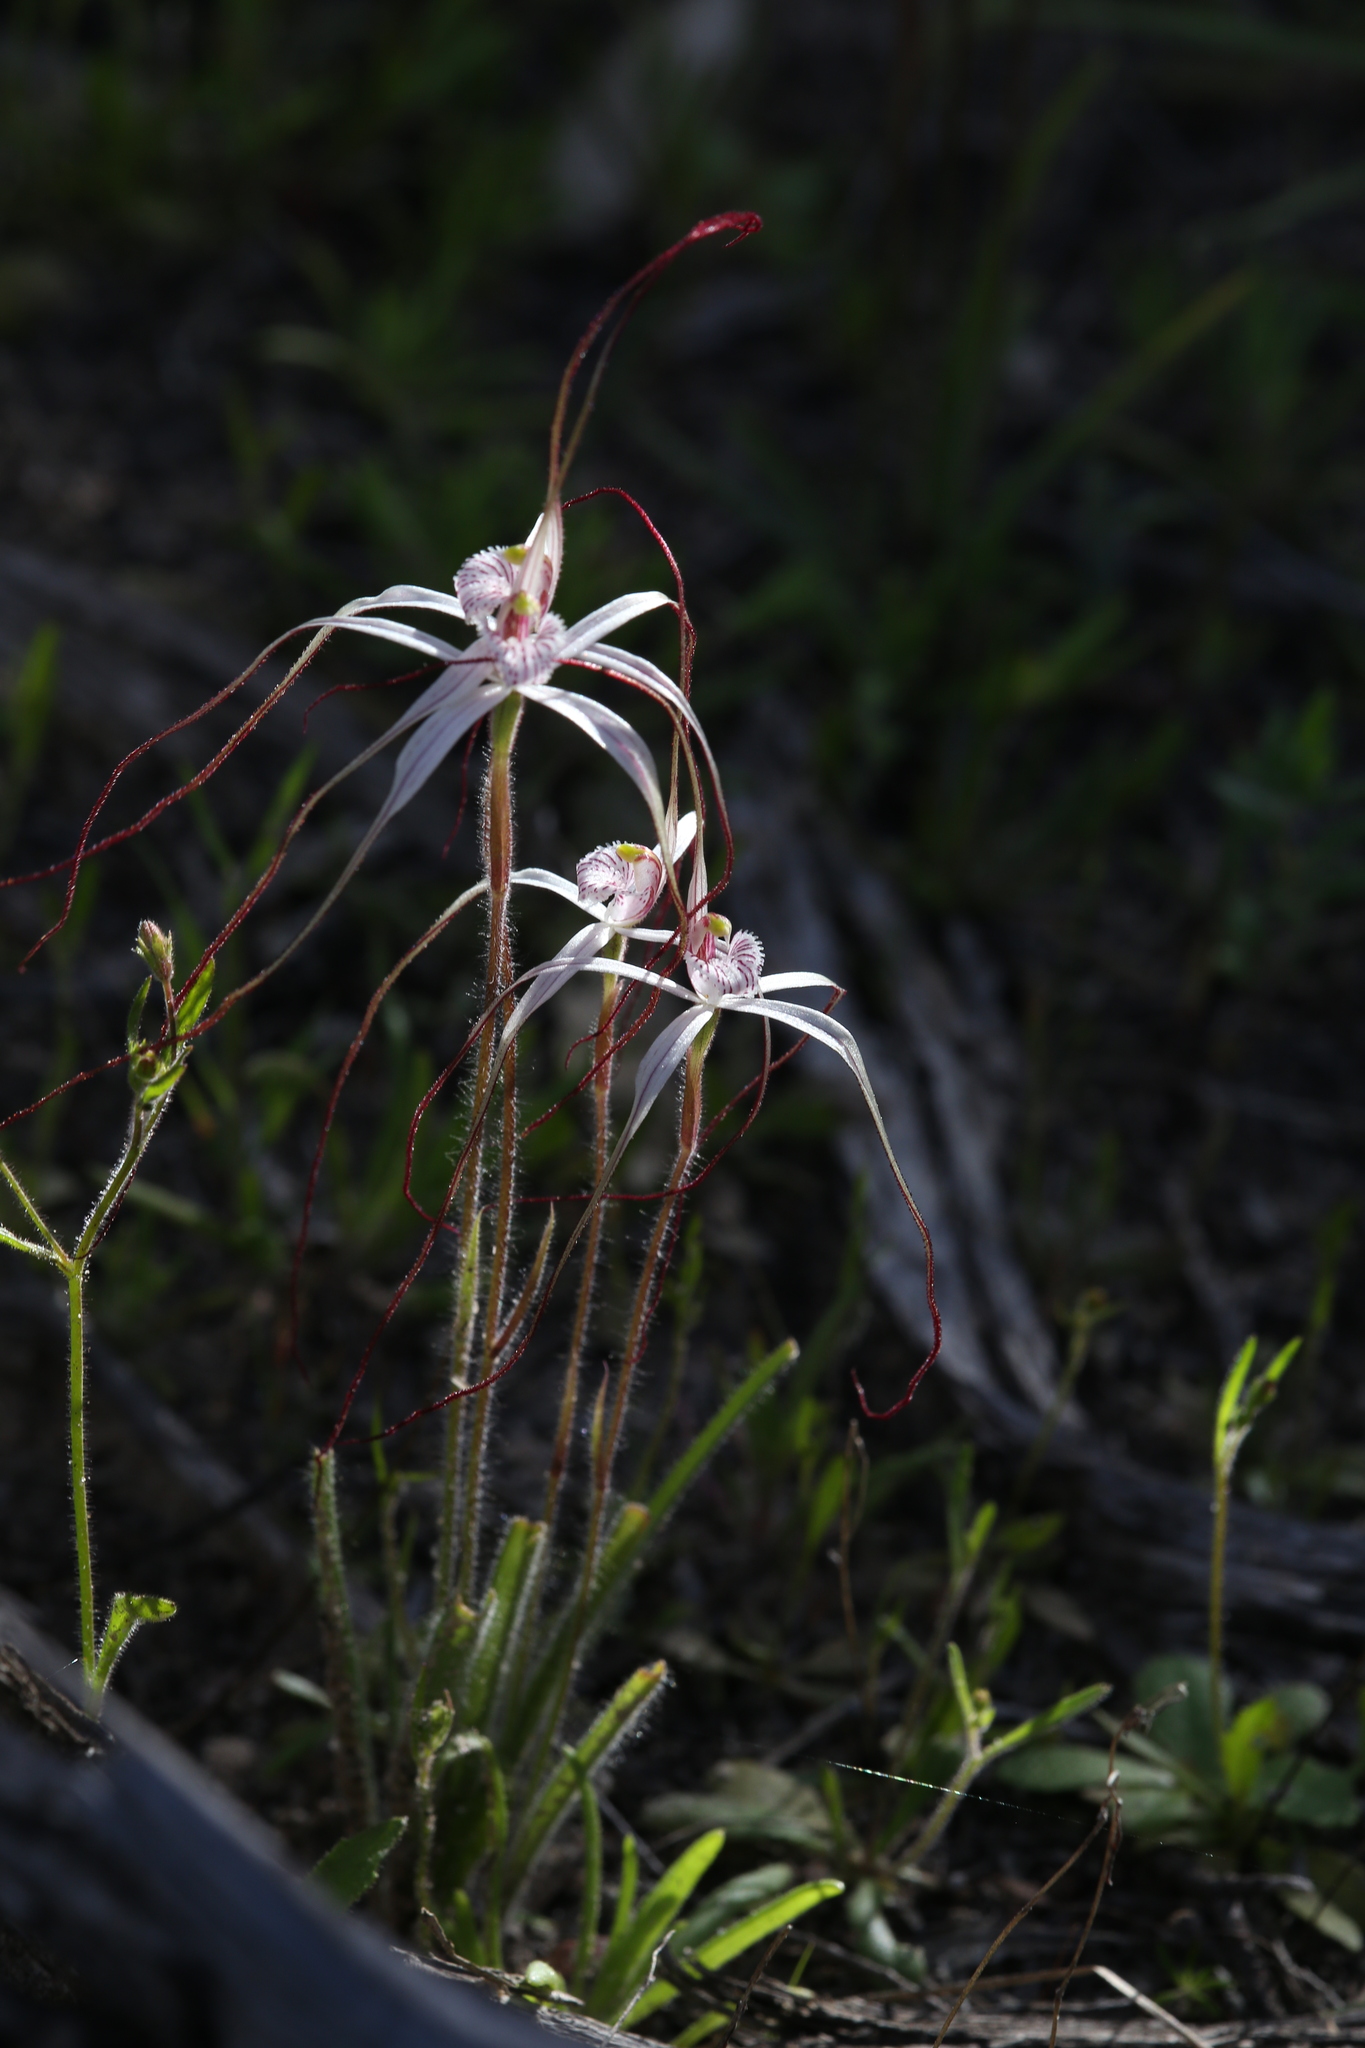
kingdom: Plantae
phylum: Tracheophyta
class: Liliopsida
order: Asparagales
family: Orchidaceae
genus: Caladenia
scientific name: Caladenia exilis
